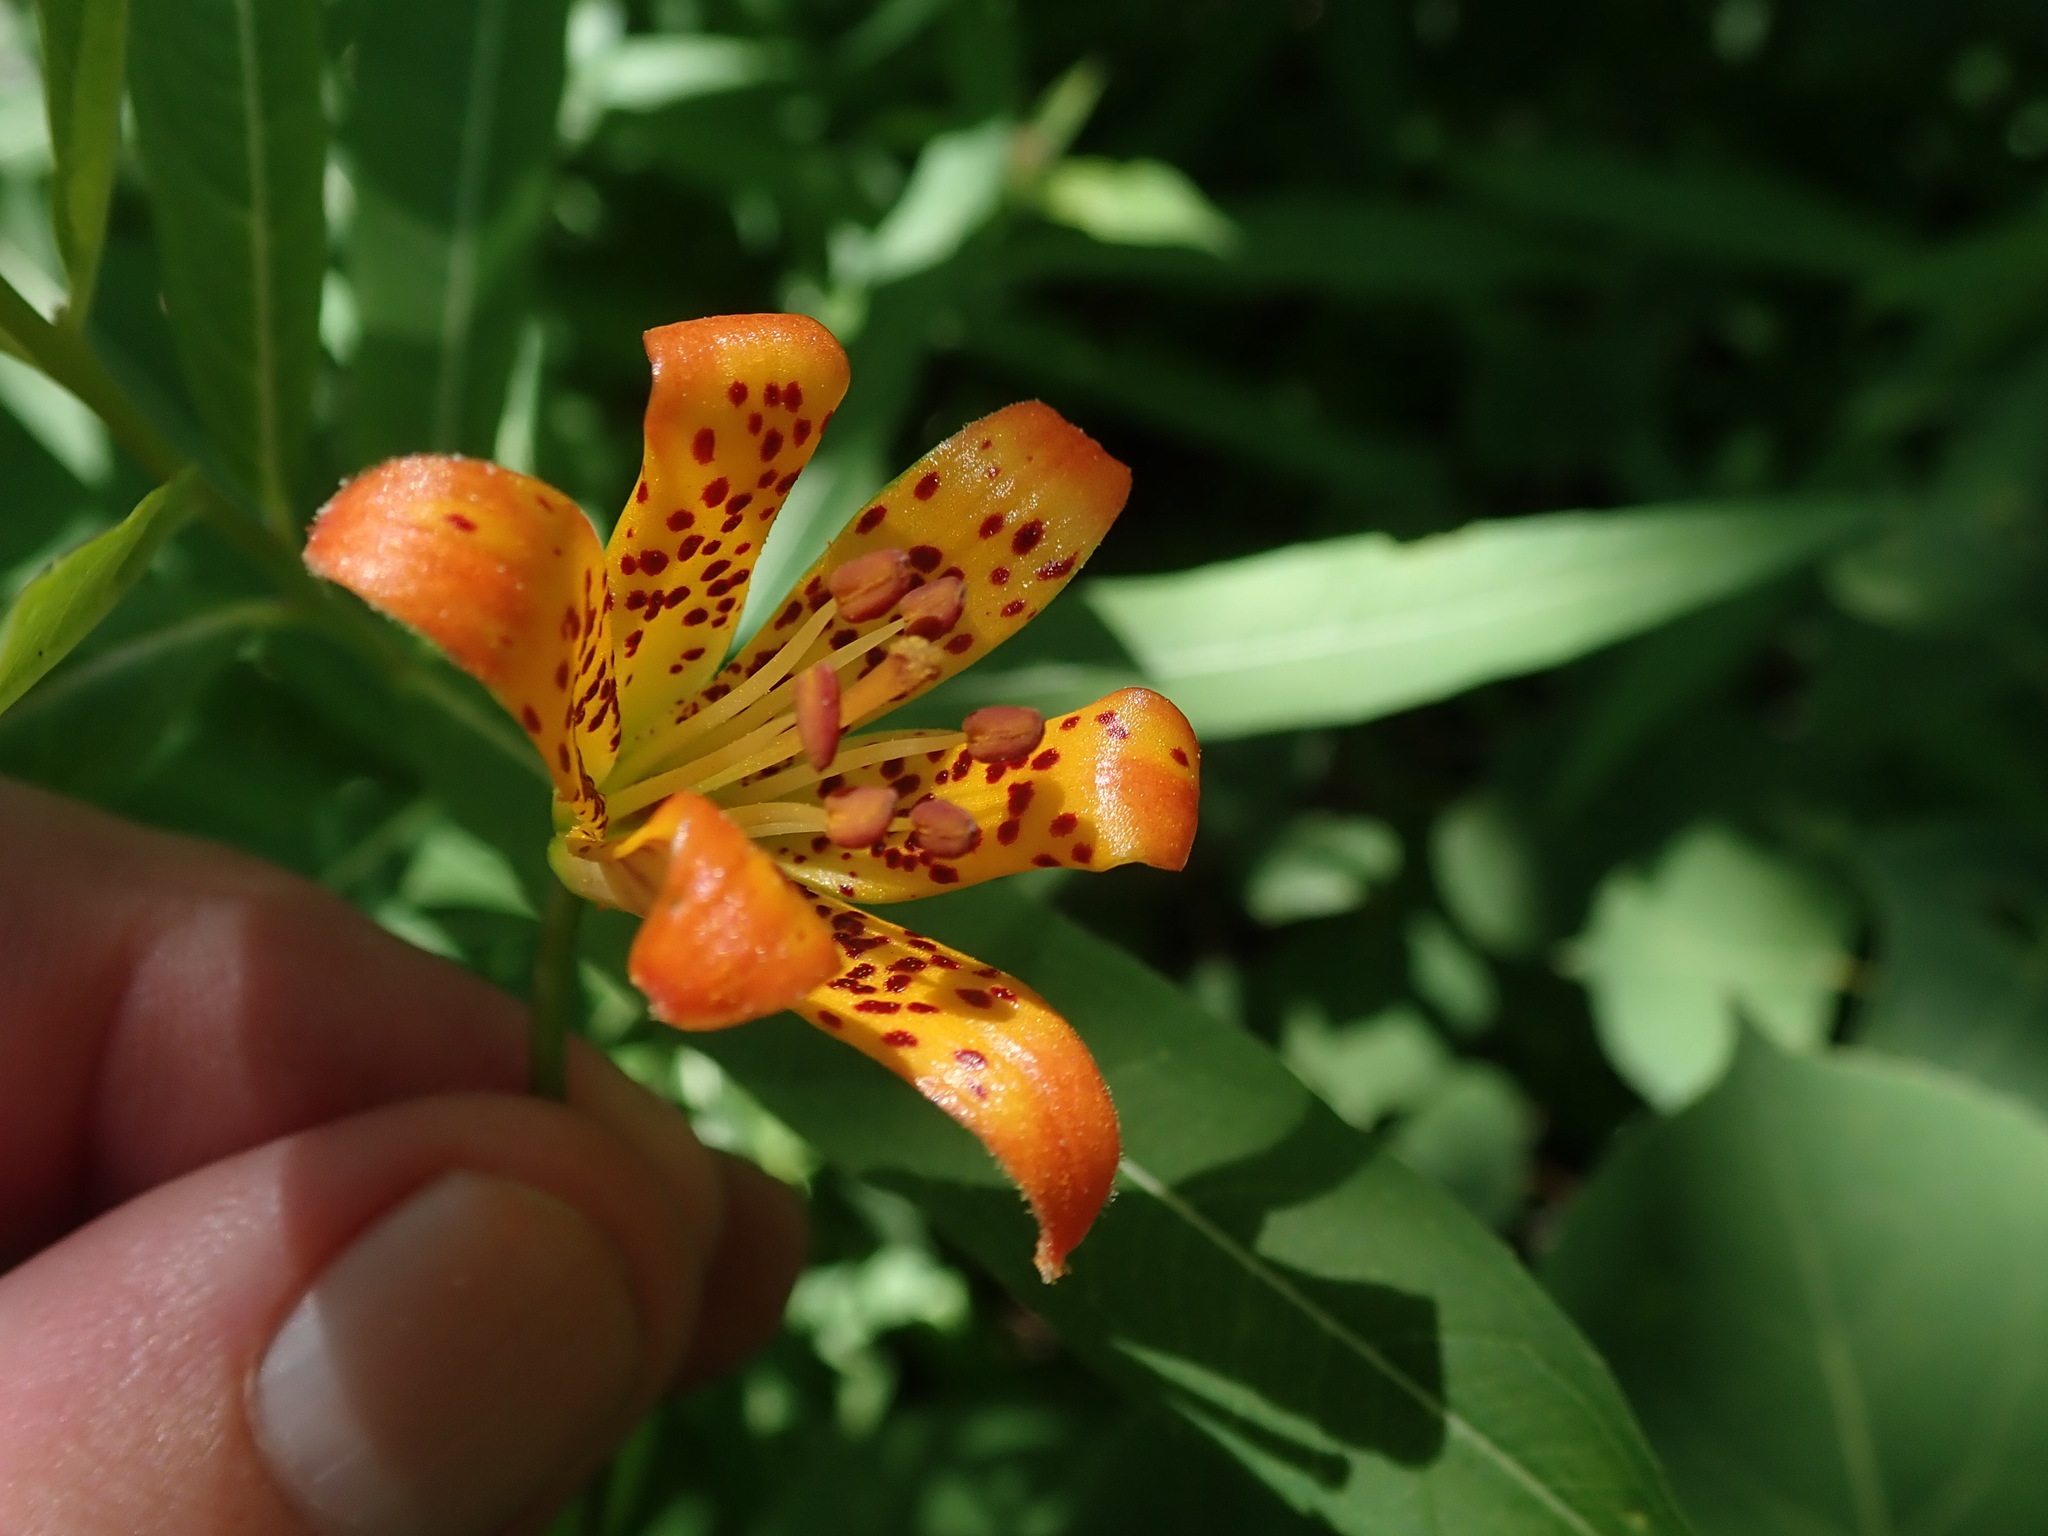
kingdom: Plantae
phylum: Tracheophyta
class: Liliopsida
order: Liliales
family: Liliaceae
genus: Lilium
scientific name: Lilium parvum
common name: Alpine lily
